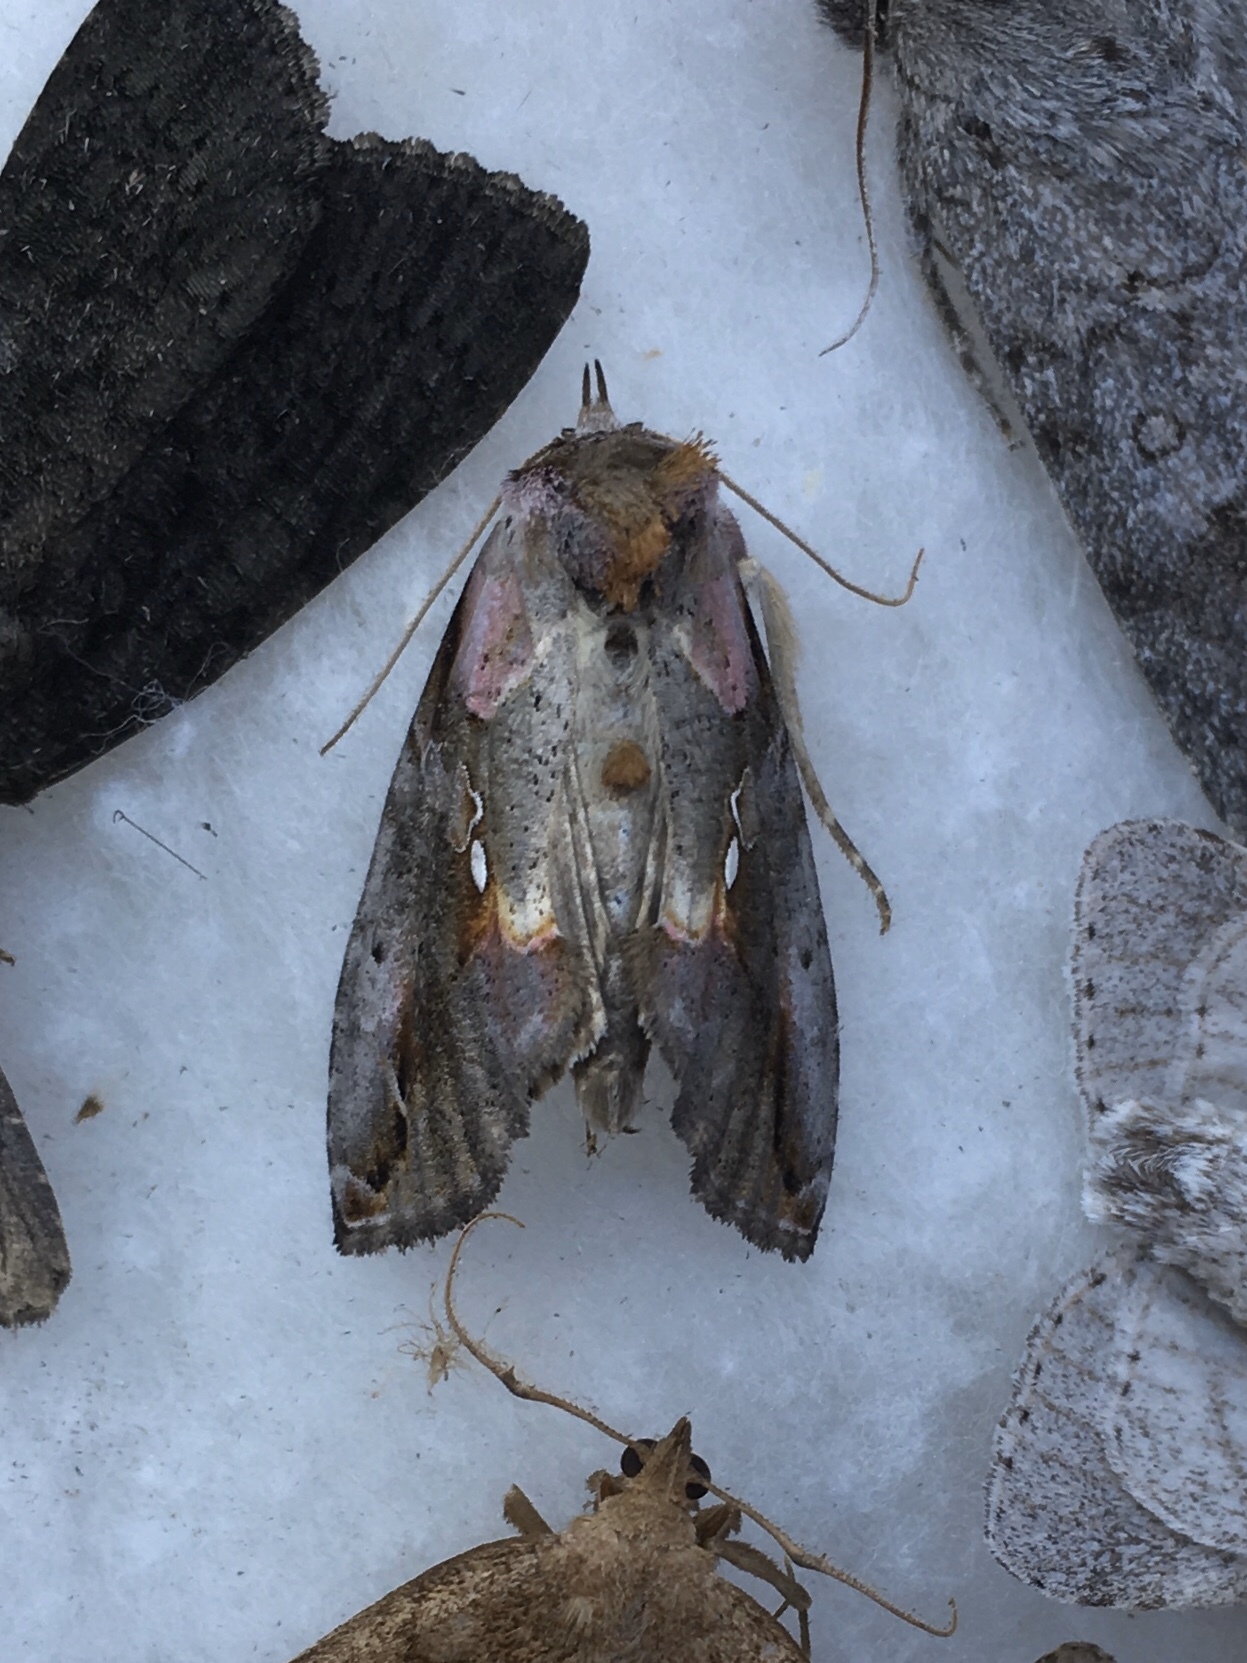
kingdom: Animalia
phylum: Arthropoda
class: Insecta
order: Lepidoptera
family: Noctuidae
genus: Eosphoropteryx
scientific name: Eosphoropteryx thyatyroides
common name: Pinkpatched looper moth
